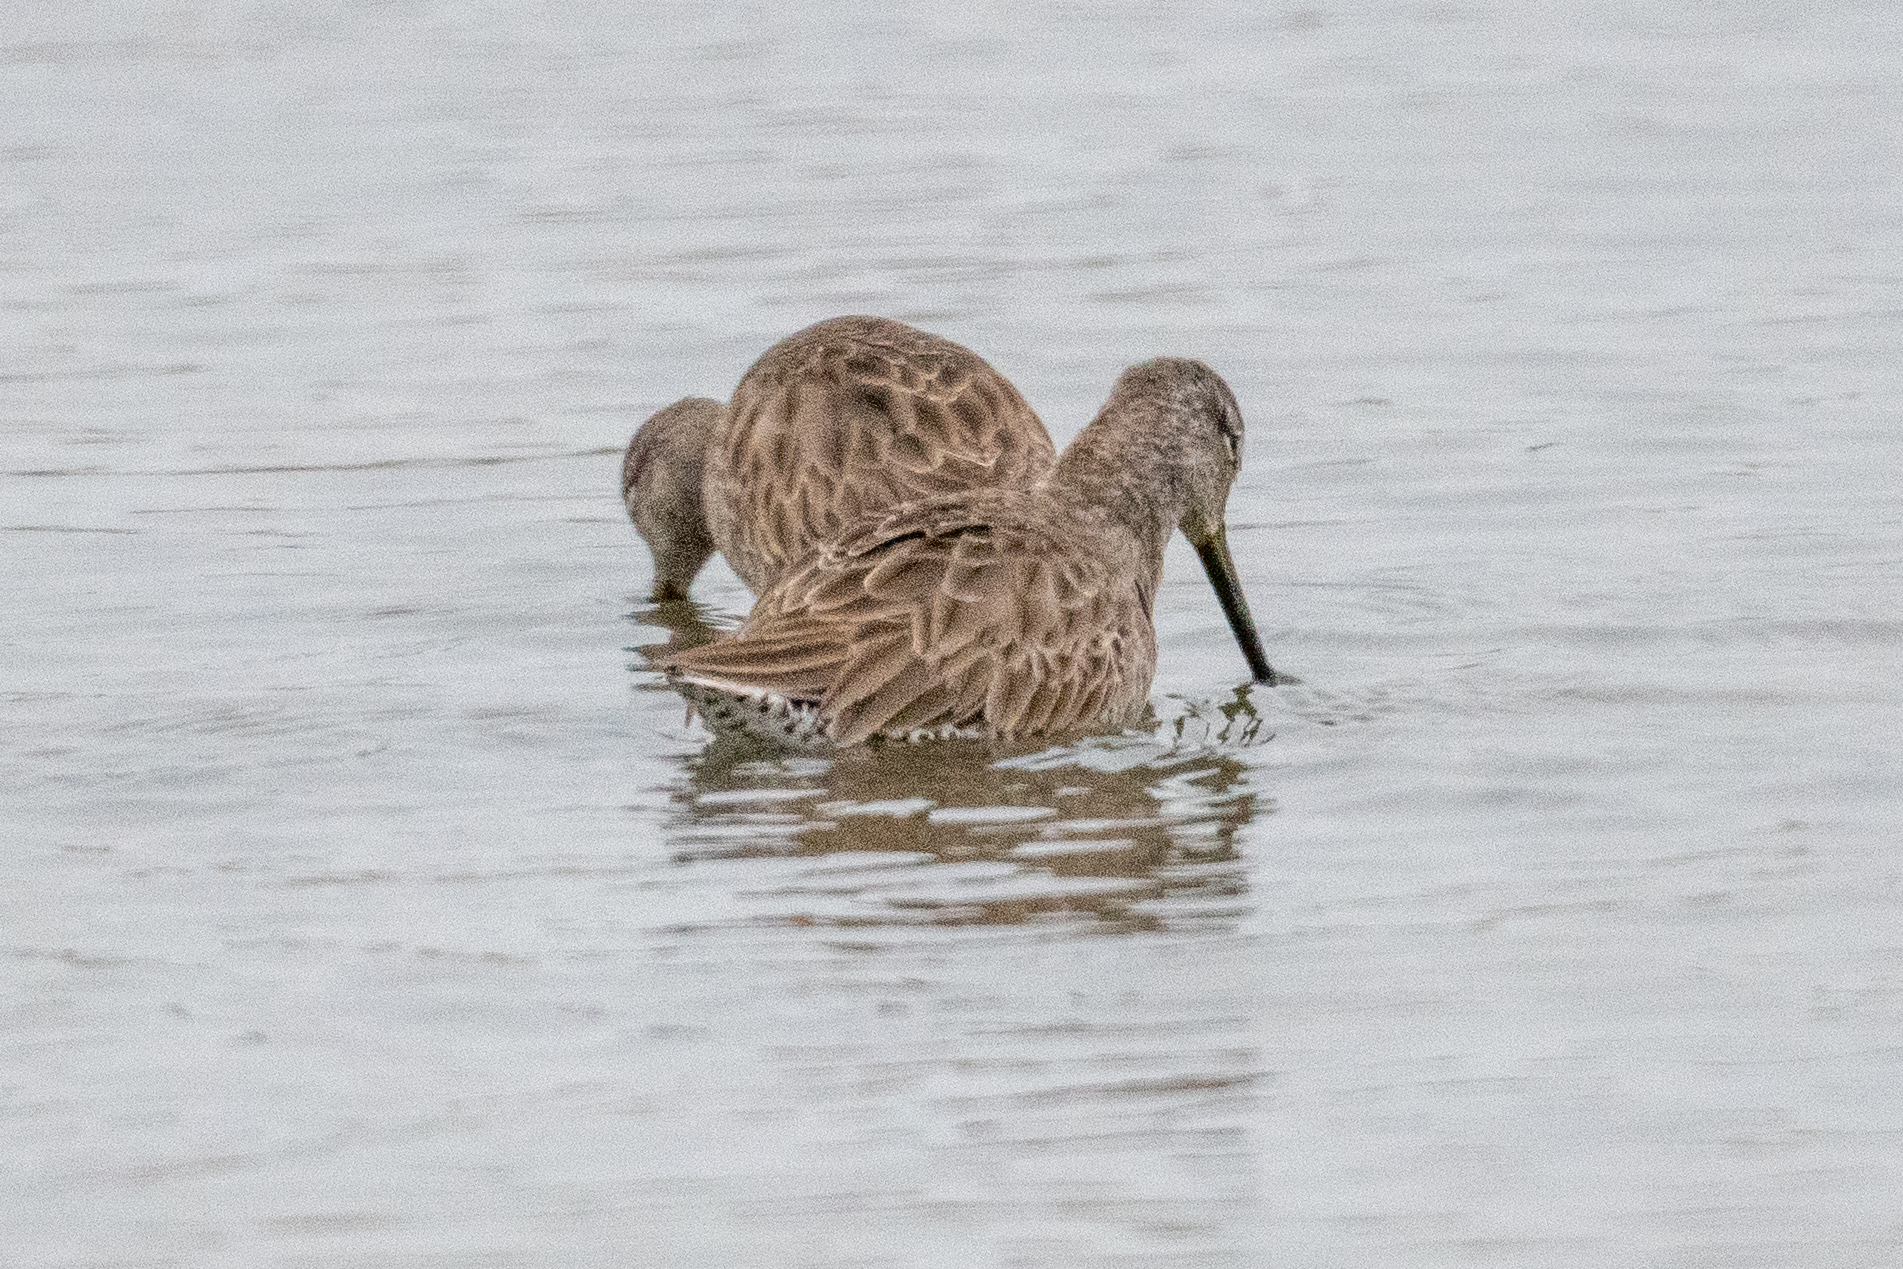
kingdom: Animalia
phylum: Chordata
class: Aves
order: Charadriiformes
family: Scolopacidae
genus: Limnodromus
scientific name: Limnodromus scolopaceus
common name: Long-billed dowitcher
